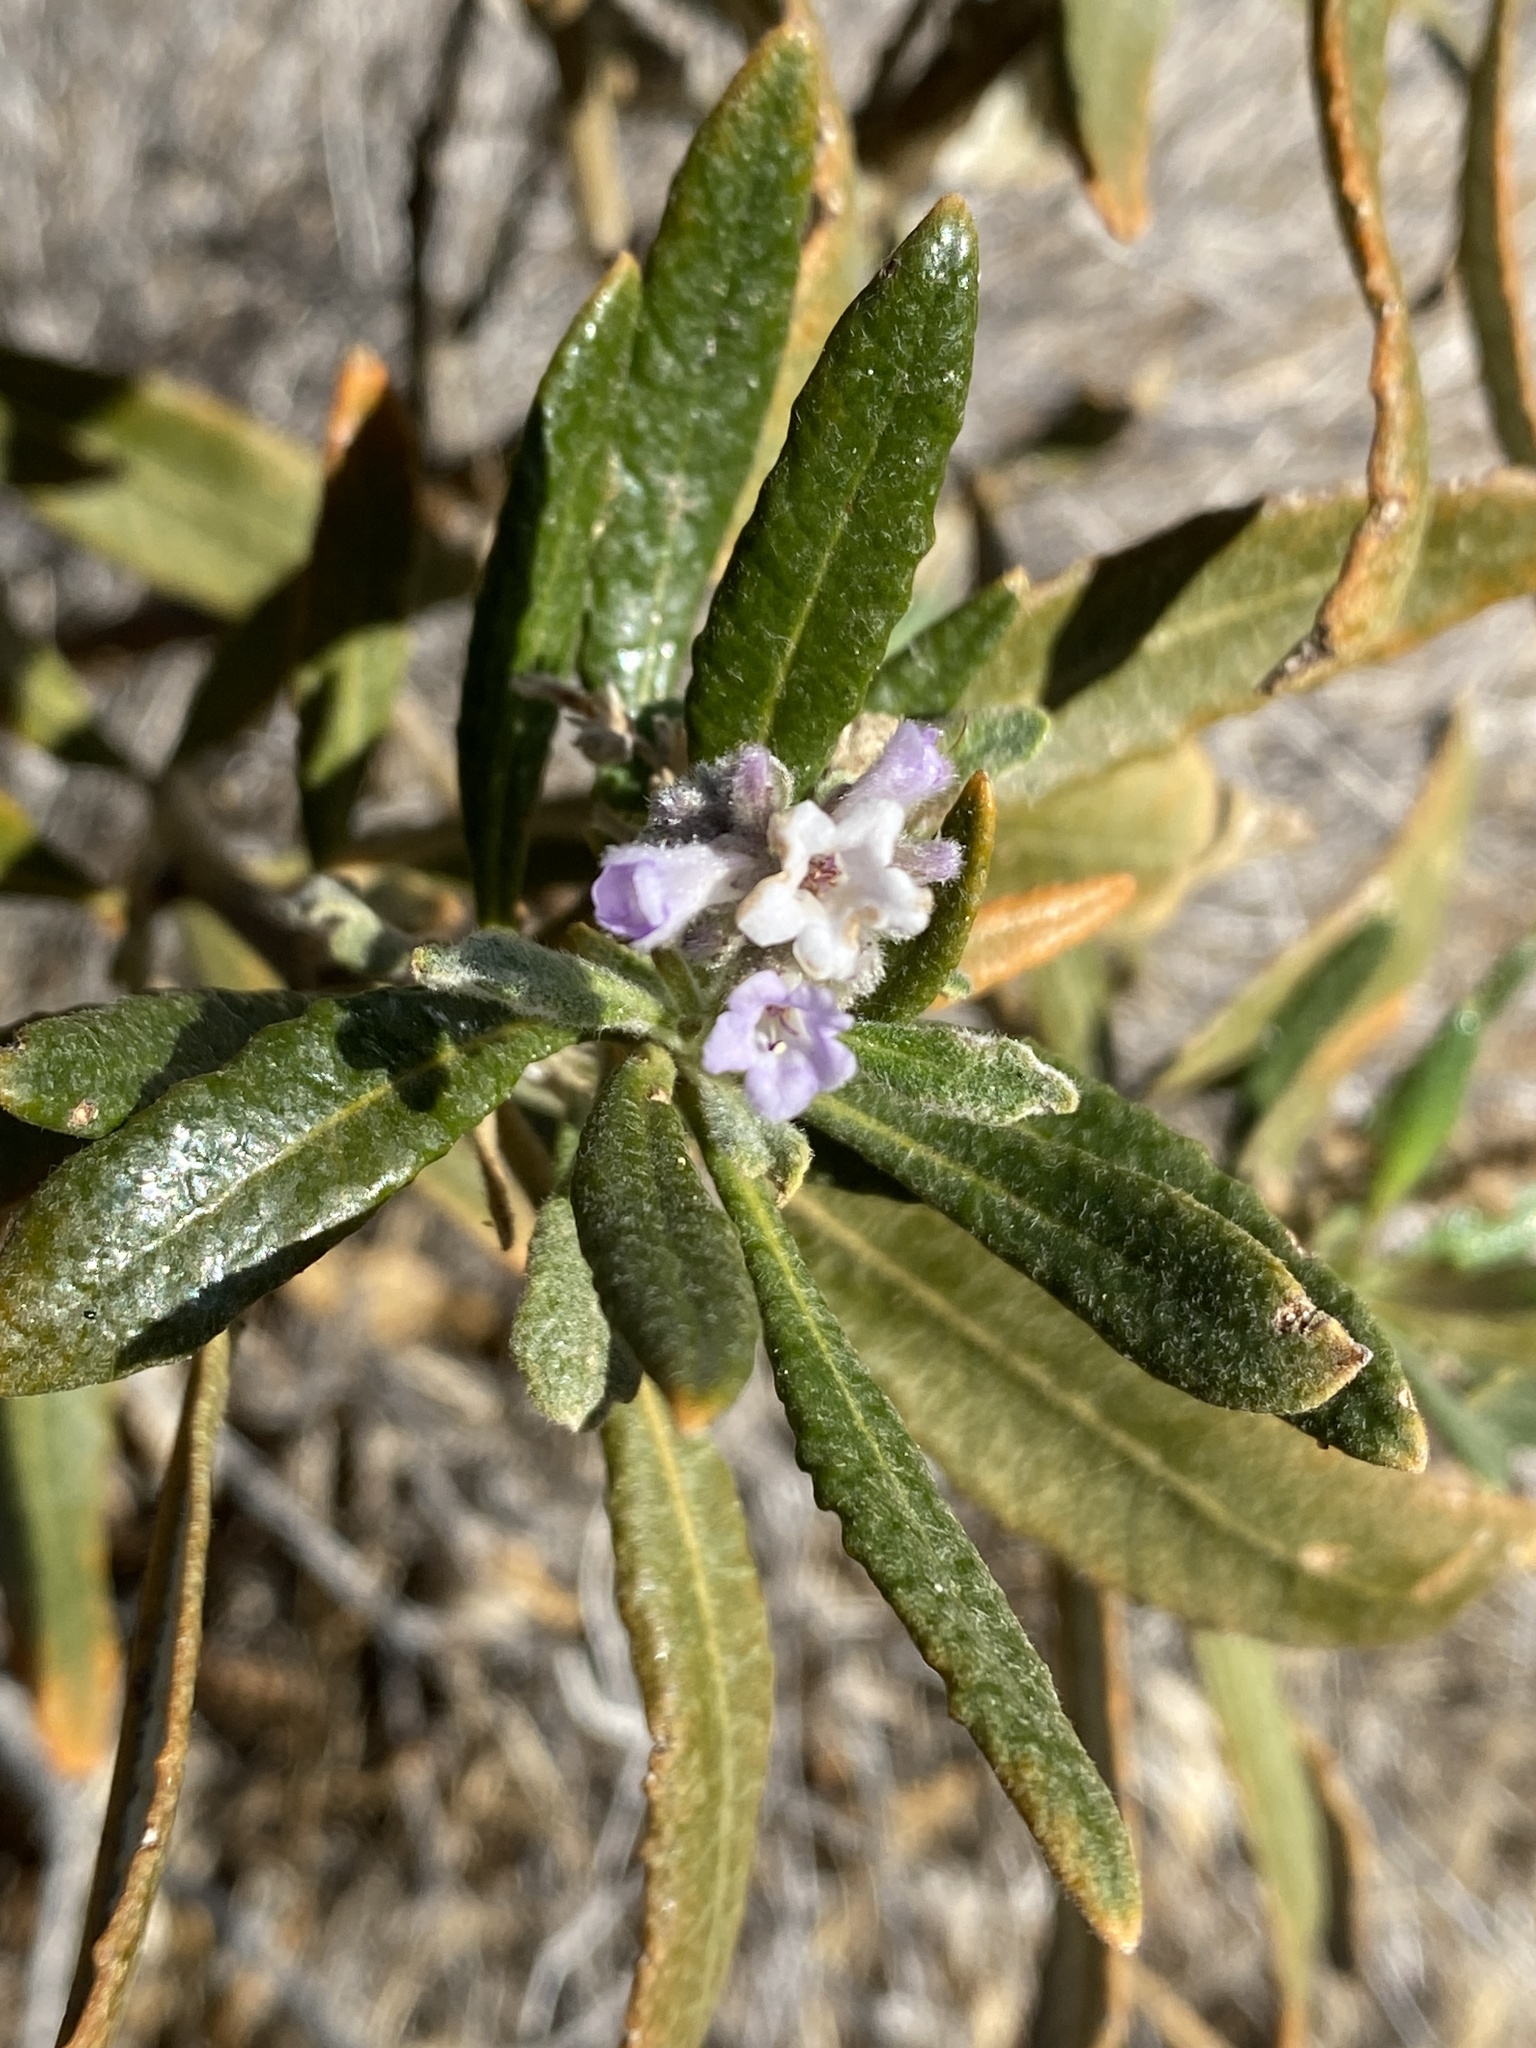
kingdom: Plantae
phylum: Tracheophyta
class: Magnoliopsida
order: Boraginales
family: Namaceae
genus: Eriodictyon
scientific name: Eriodictyon trichocalyx
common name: Hairy yerba-santa
